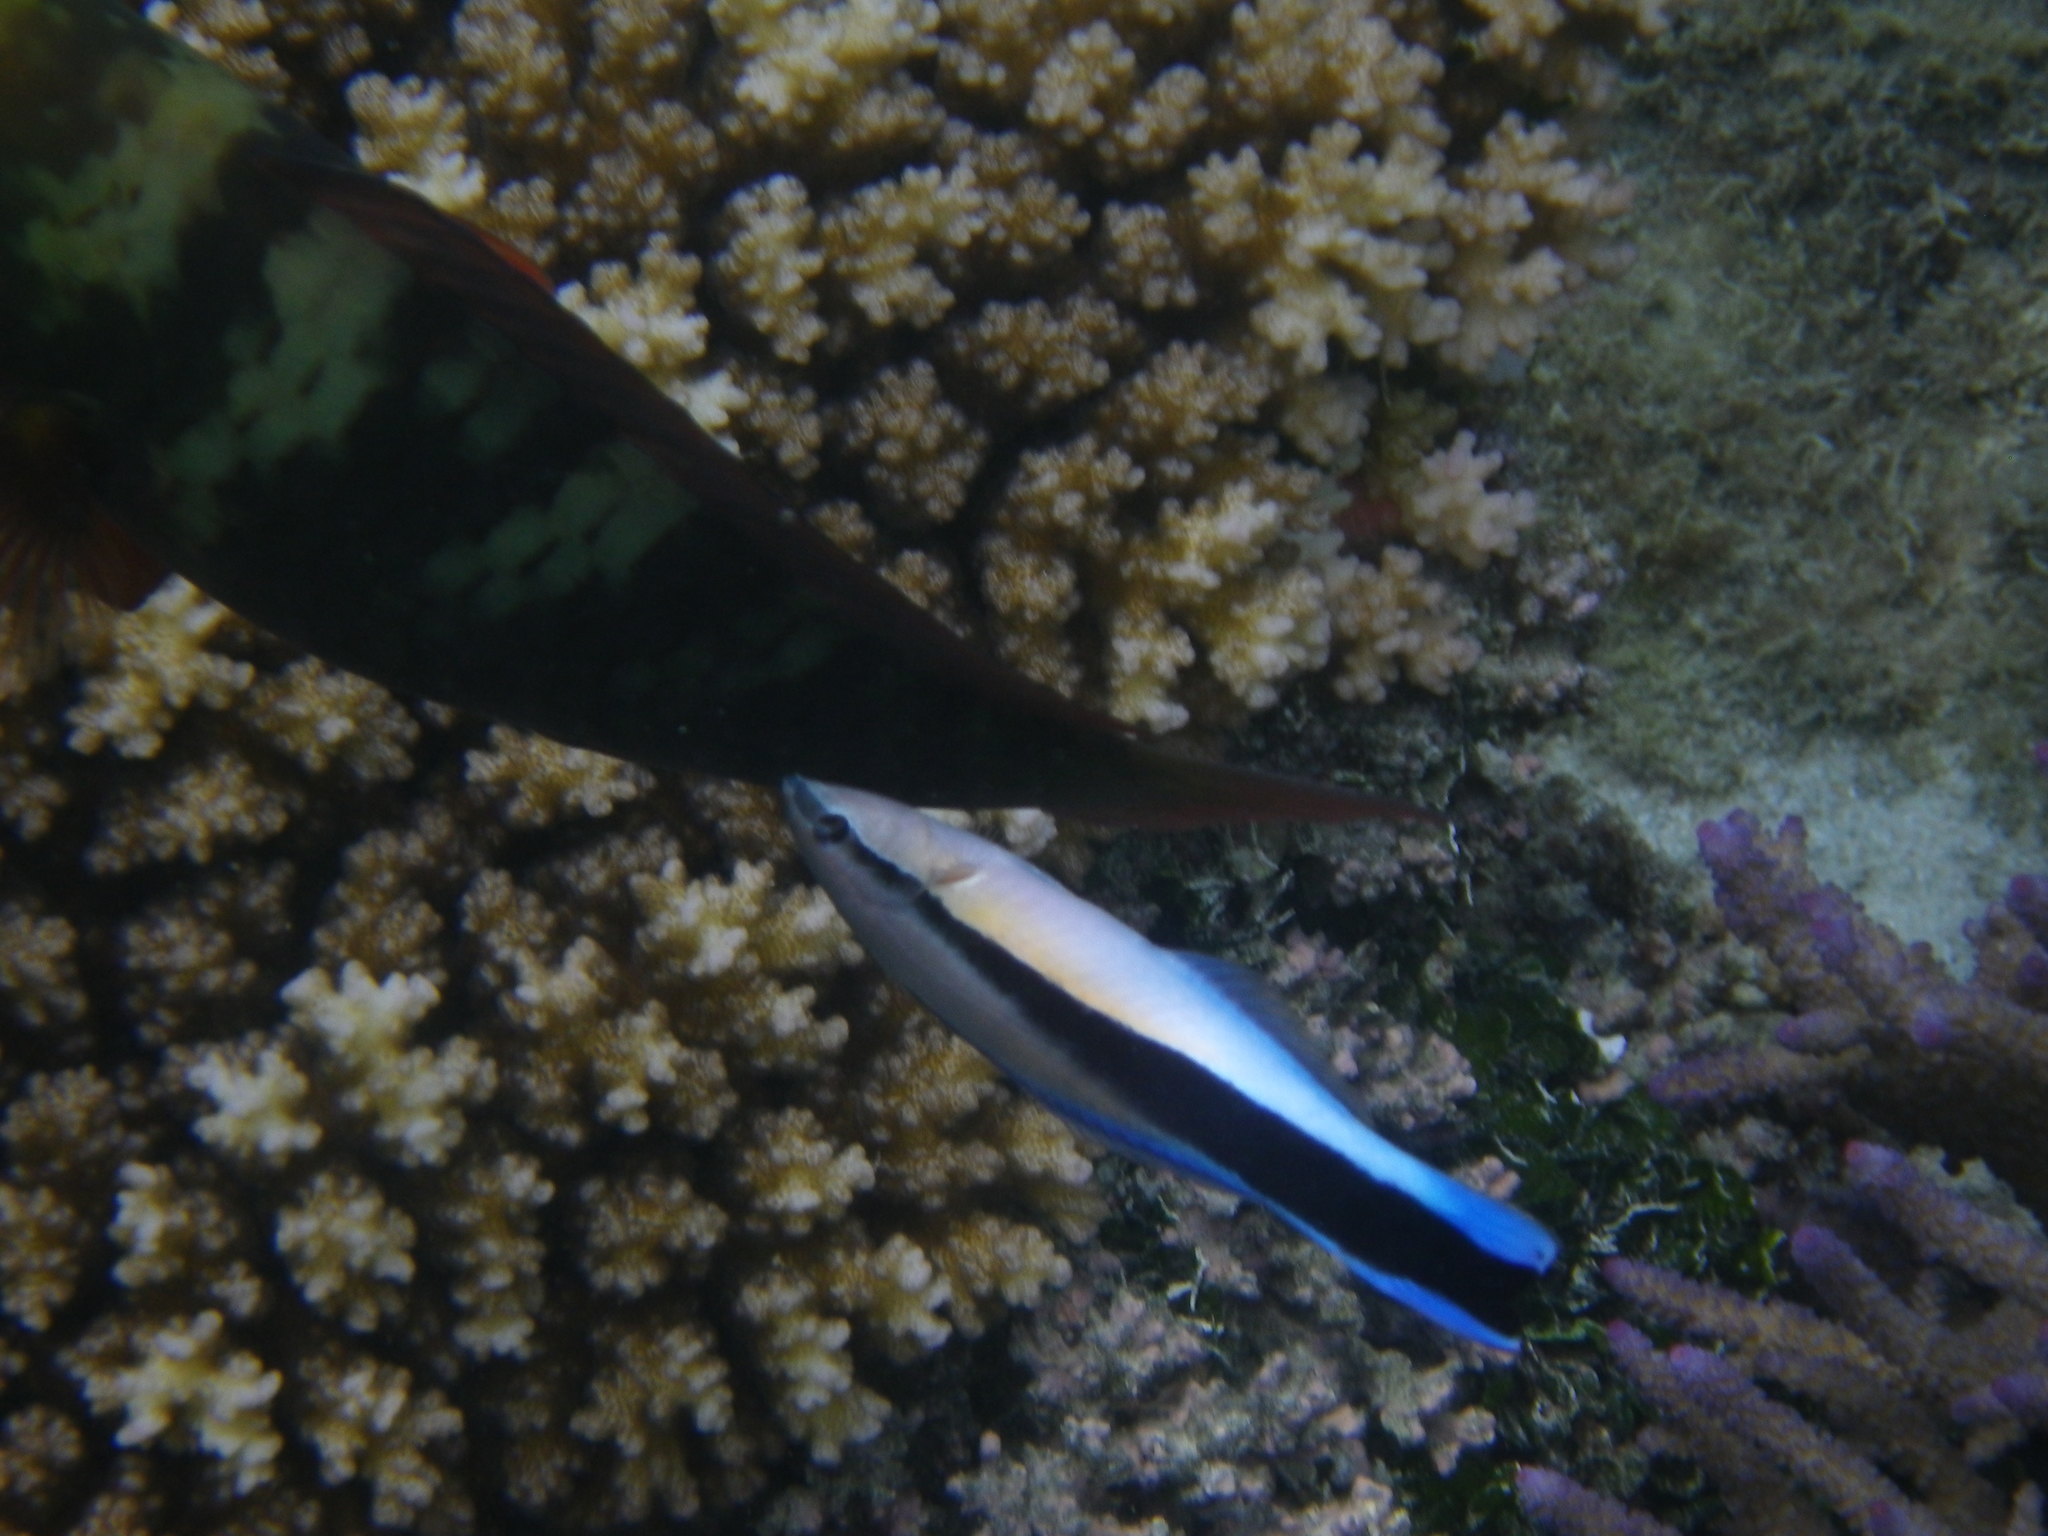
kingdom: Animalia
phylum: Chordata
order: Perciformes
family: Labridae
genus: Labroides
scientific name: Labroides dimidiatus
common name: Blue diesel wrasse
